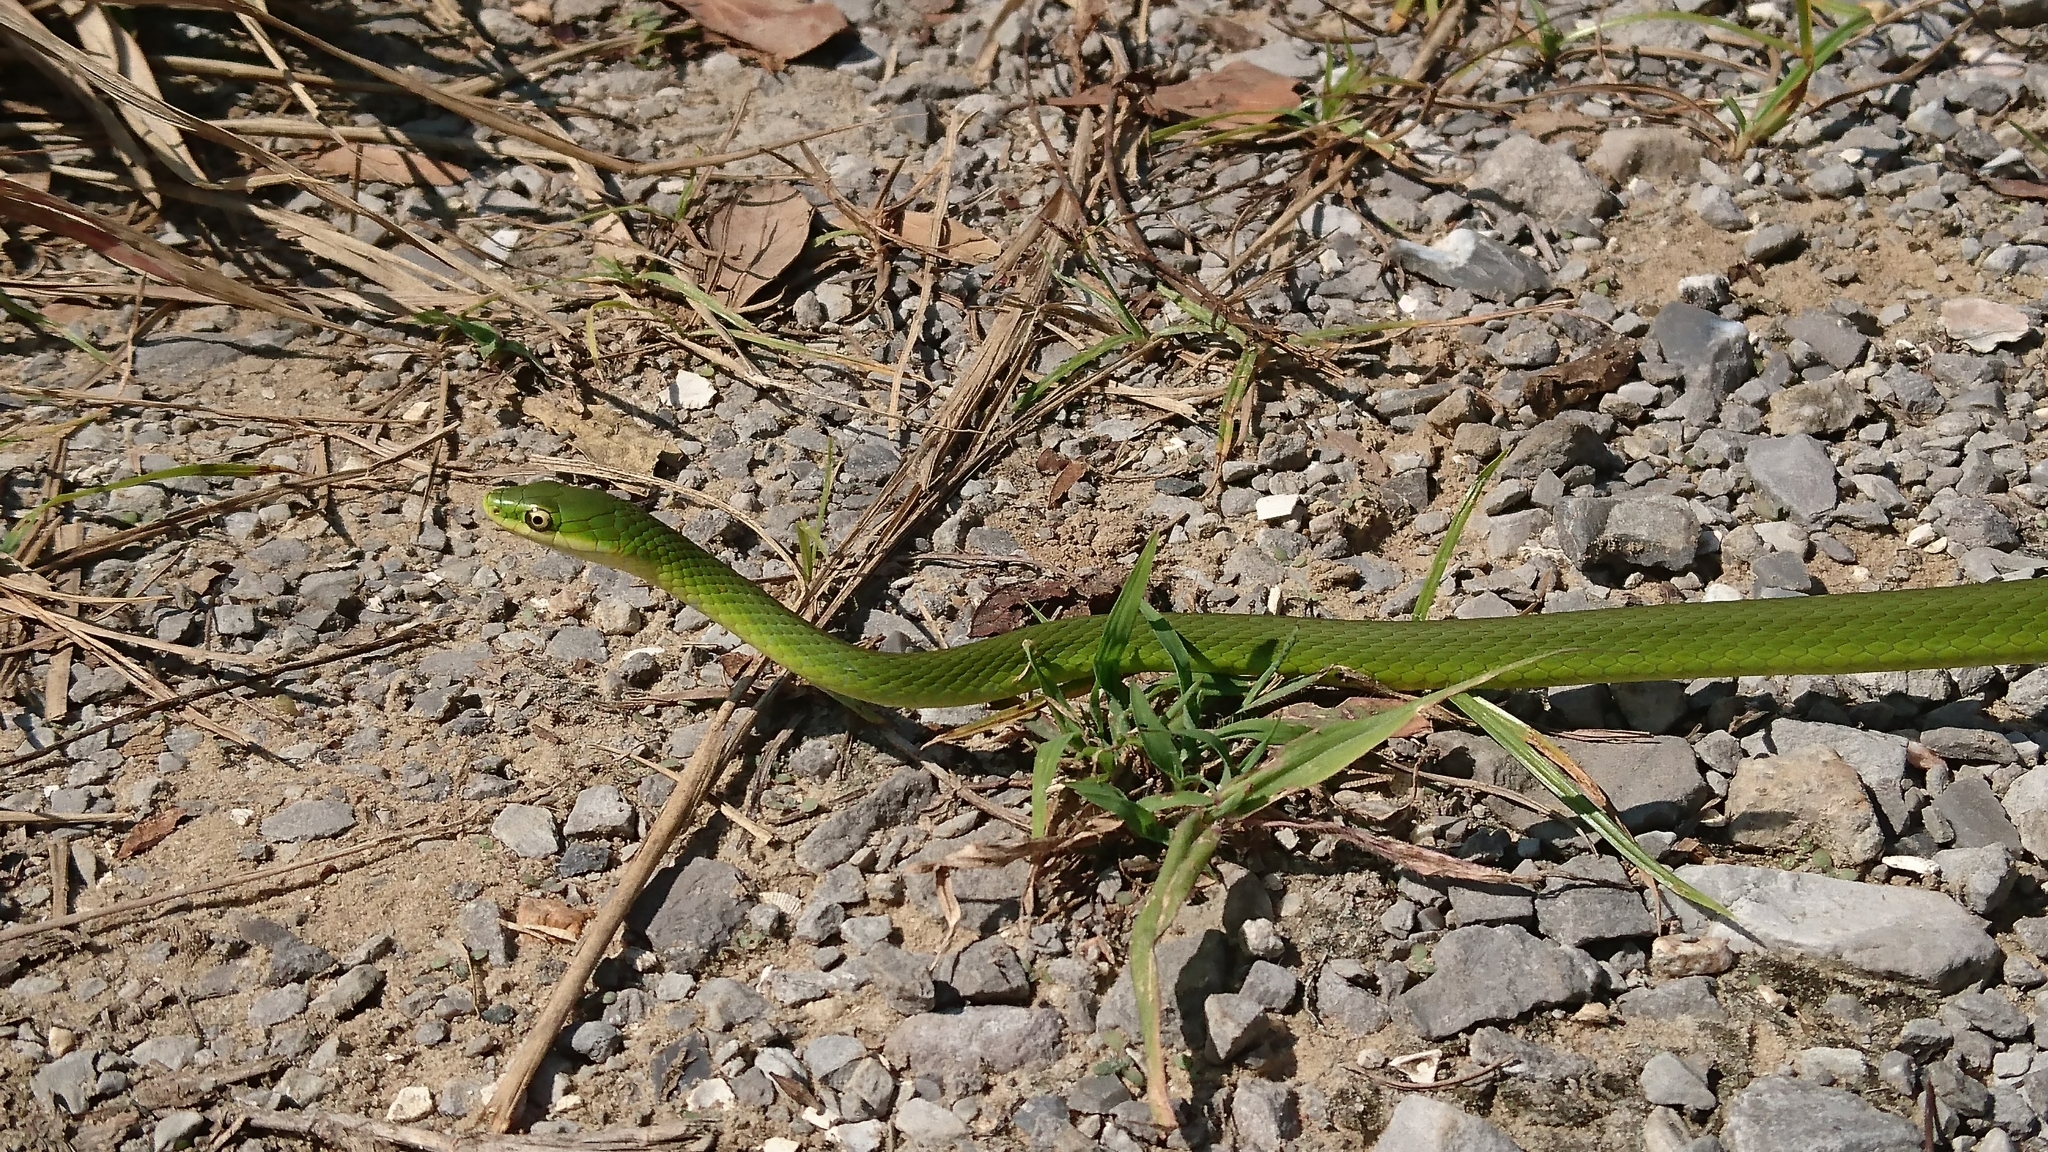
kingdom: Animalia
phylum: Chordata
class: Squamata
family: Colubridae
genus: Opheodrys
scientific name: Opheodrys aestivus
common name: Rough greensnake
